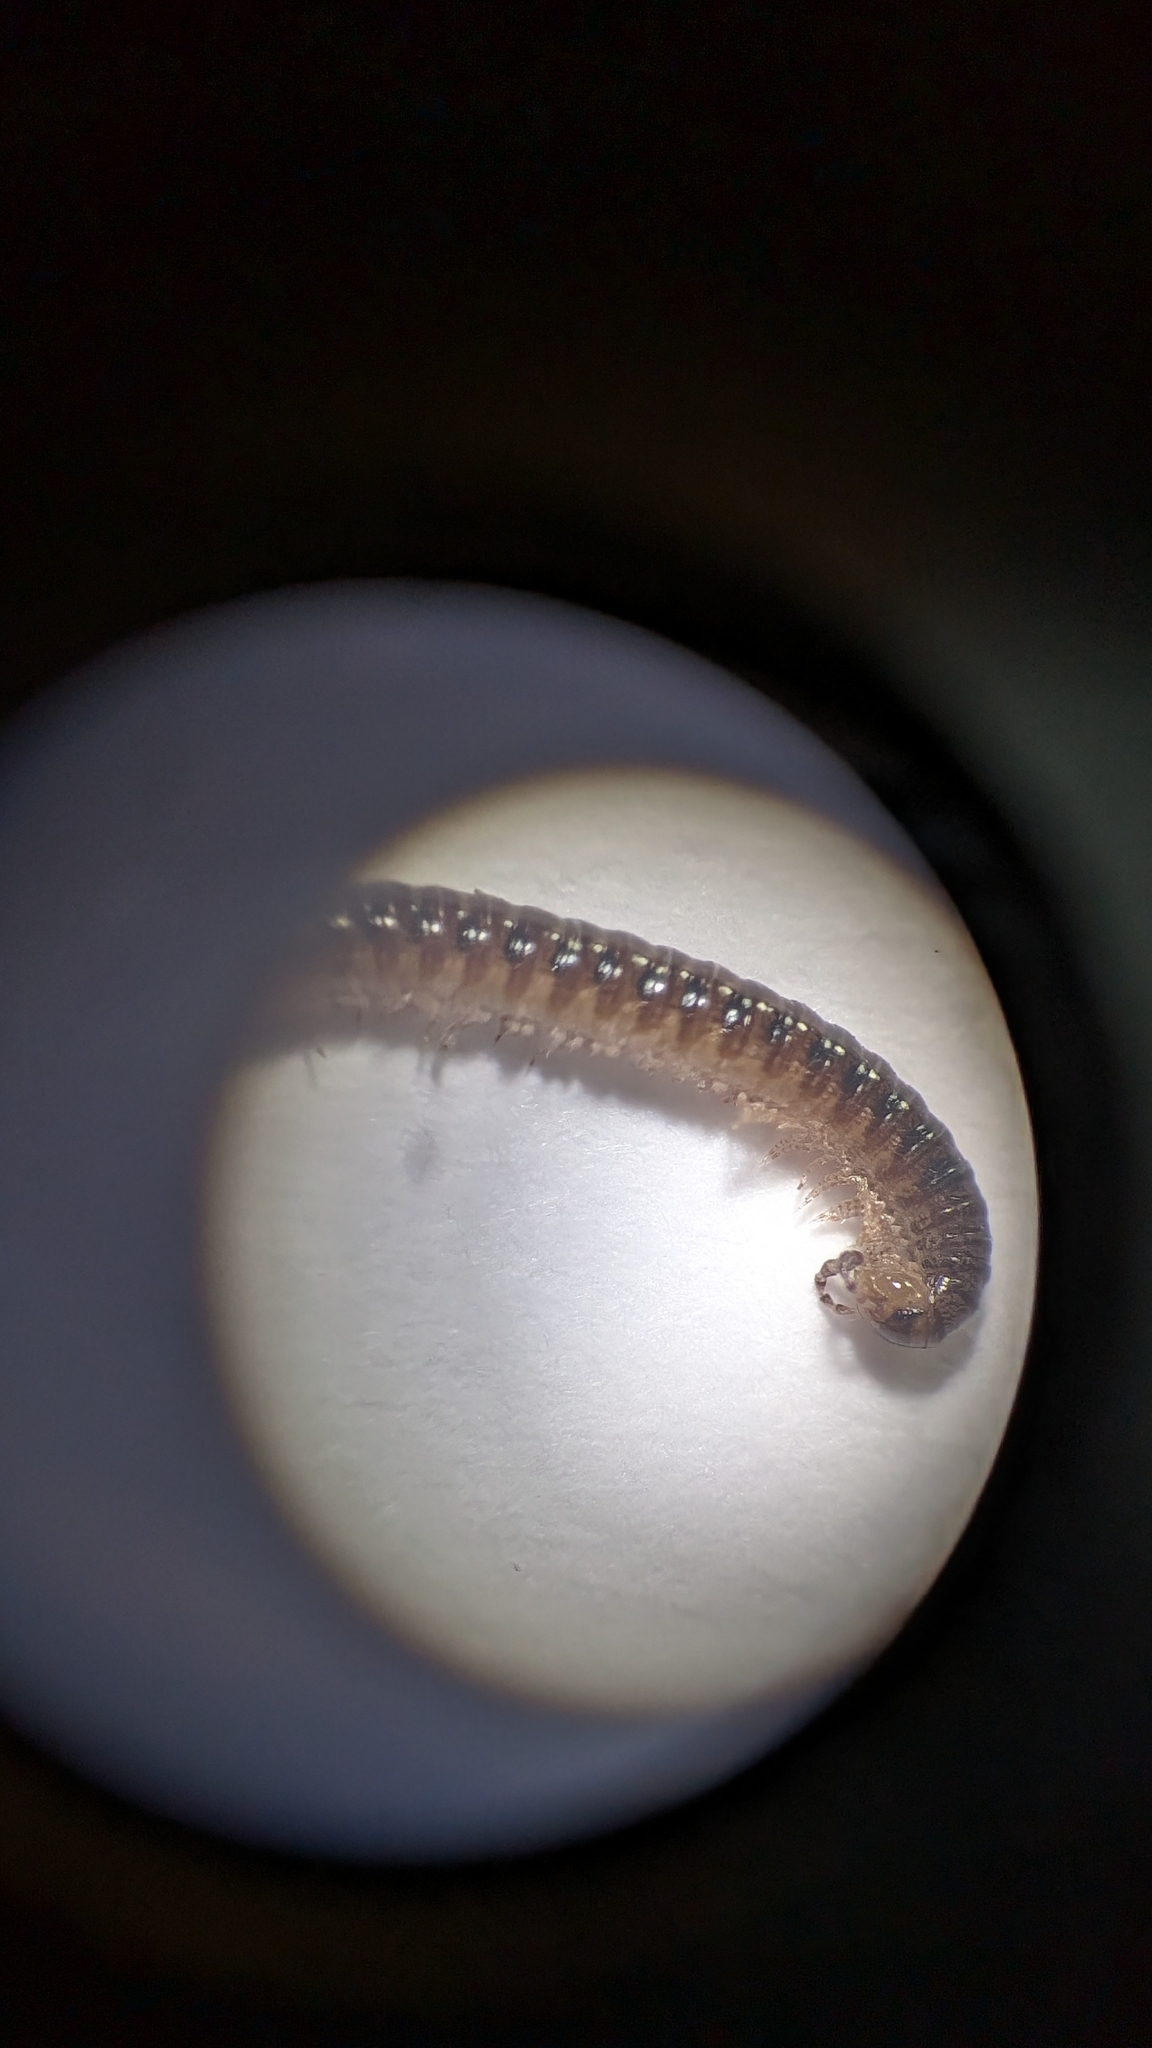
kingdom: Animalia
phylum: Arthropoda
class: Diplopoda
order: Julida
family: Blaniulidae
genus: Proteroiulus
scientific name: Proteroiulus fuscus
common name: Millipede
